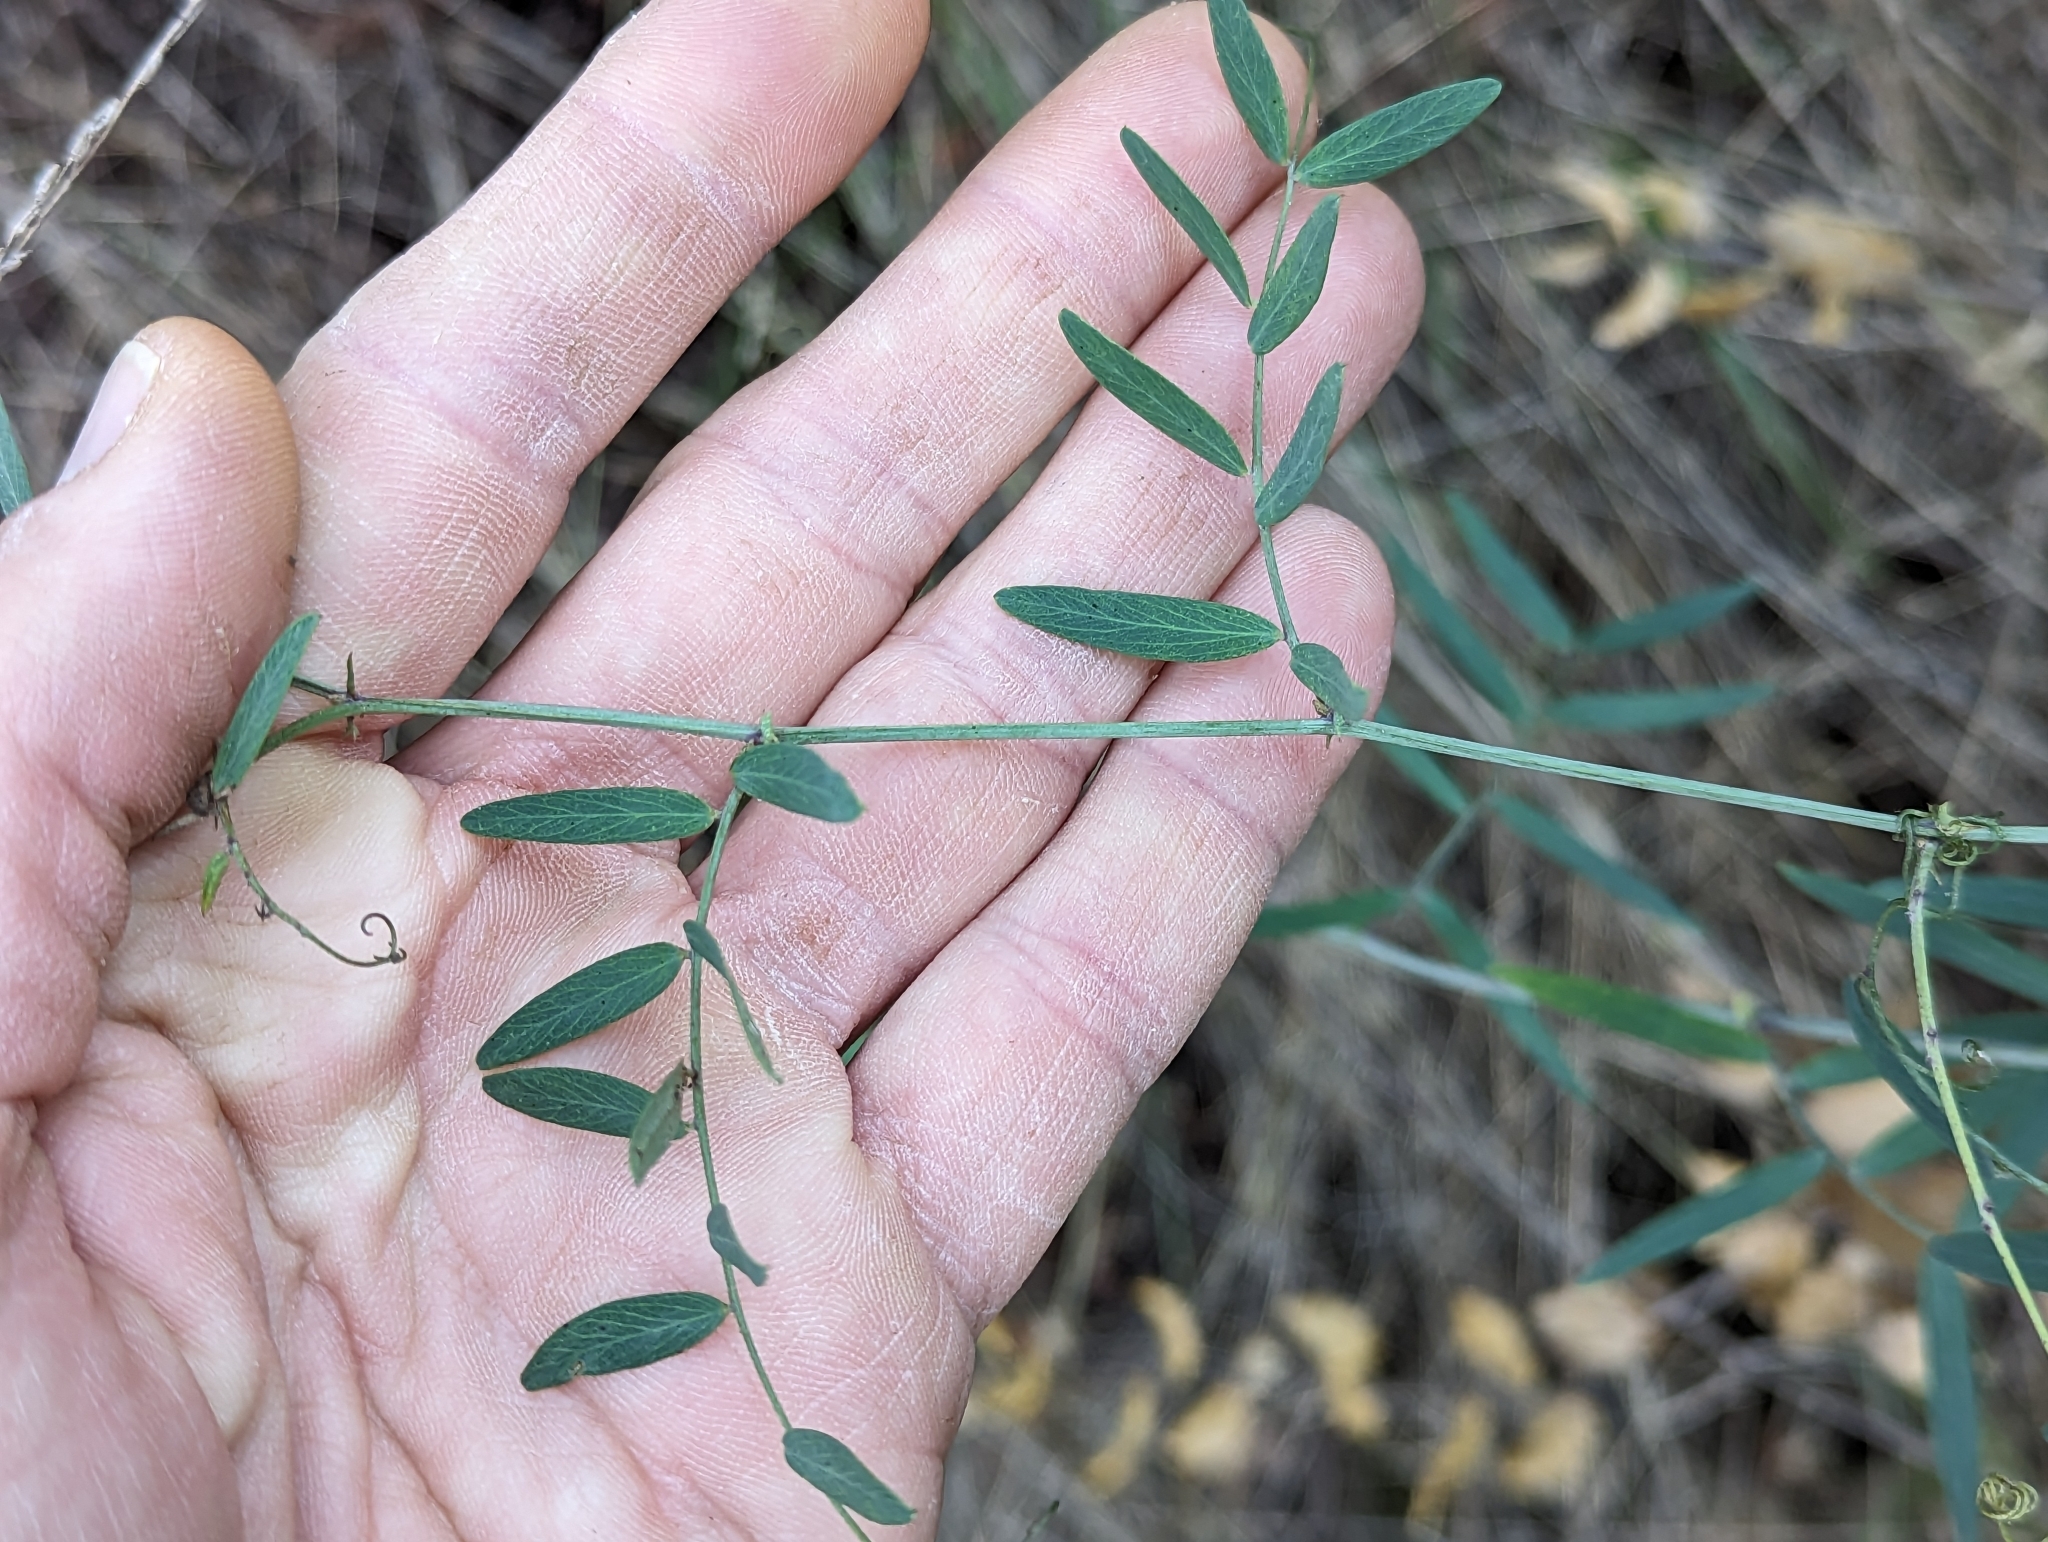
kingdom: Plantae
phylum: Tracheophyta
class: Magnoliopsida
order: Fabales
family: Fabaceae
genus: Lathyrus
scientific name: Lathyrus vestitus
